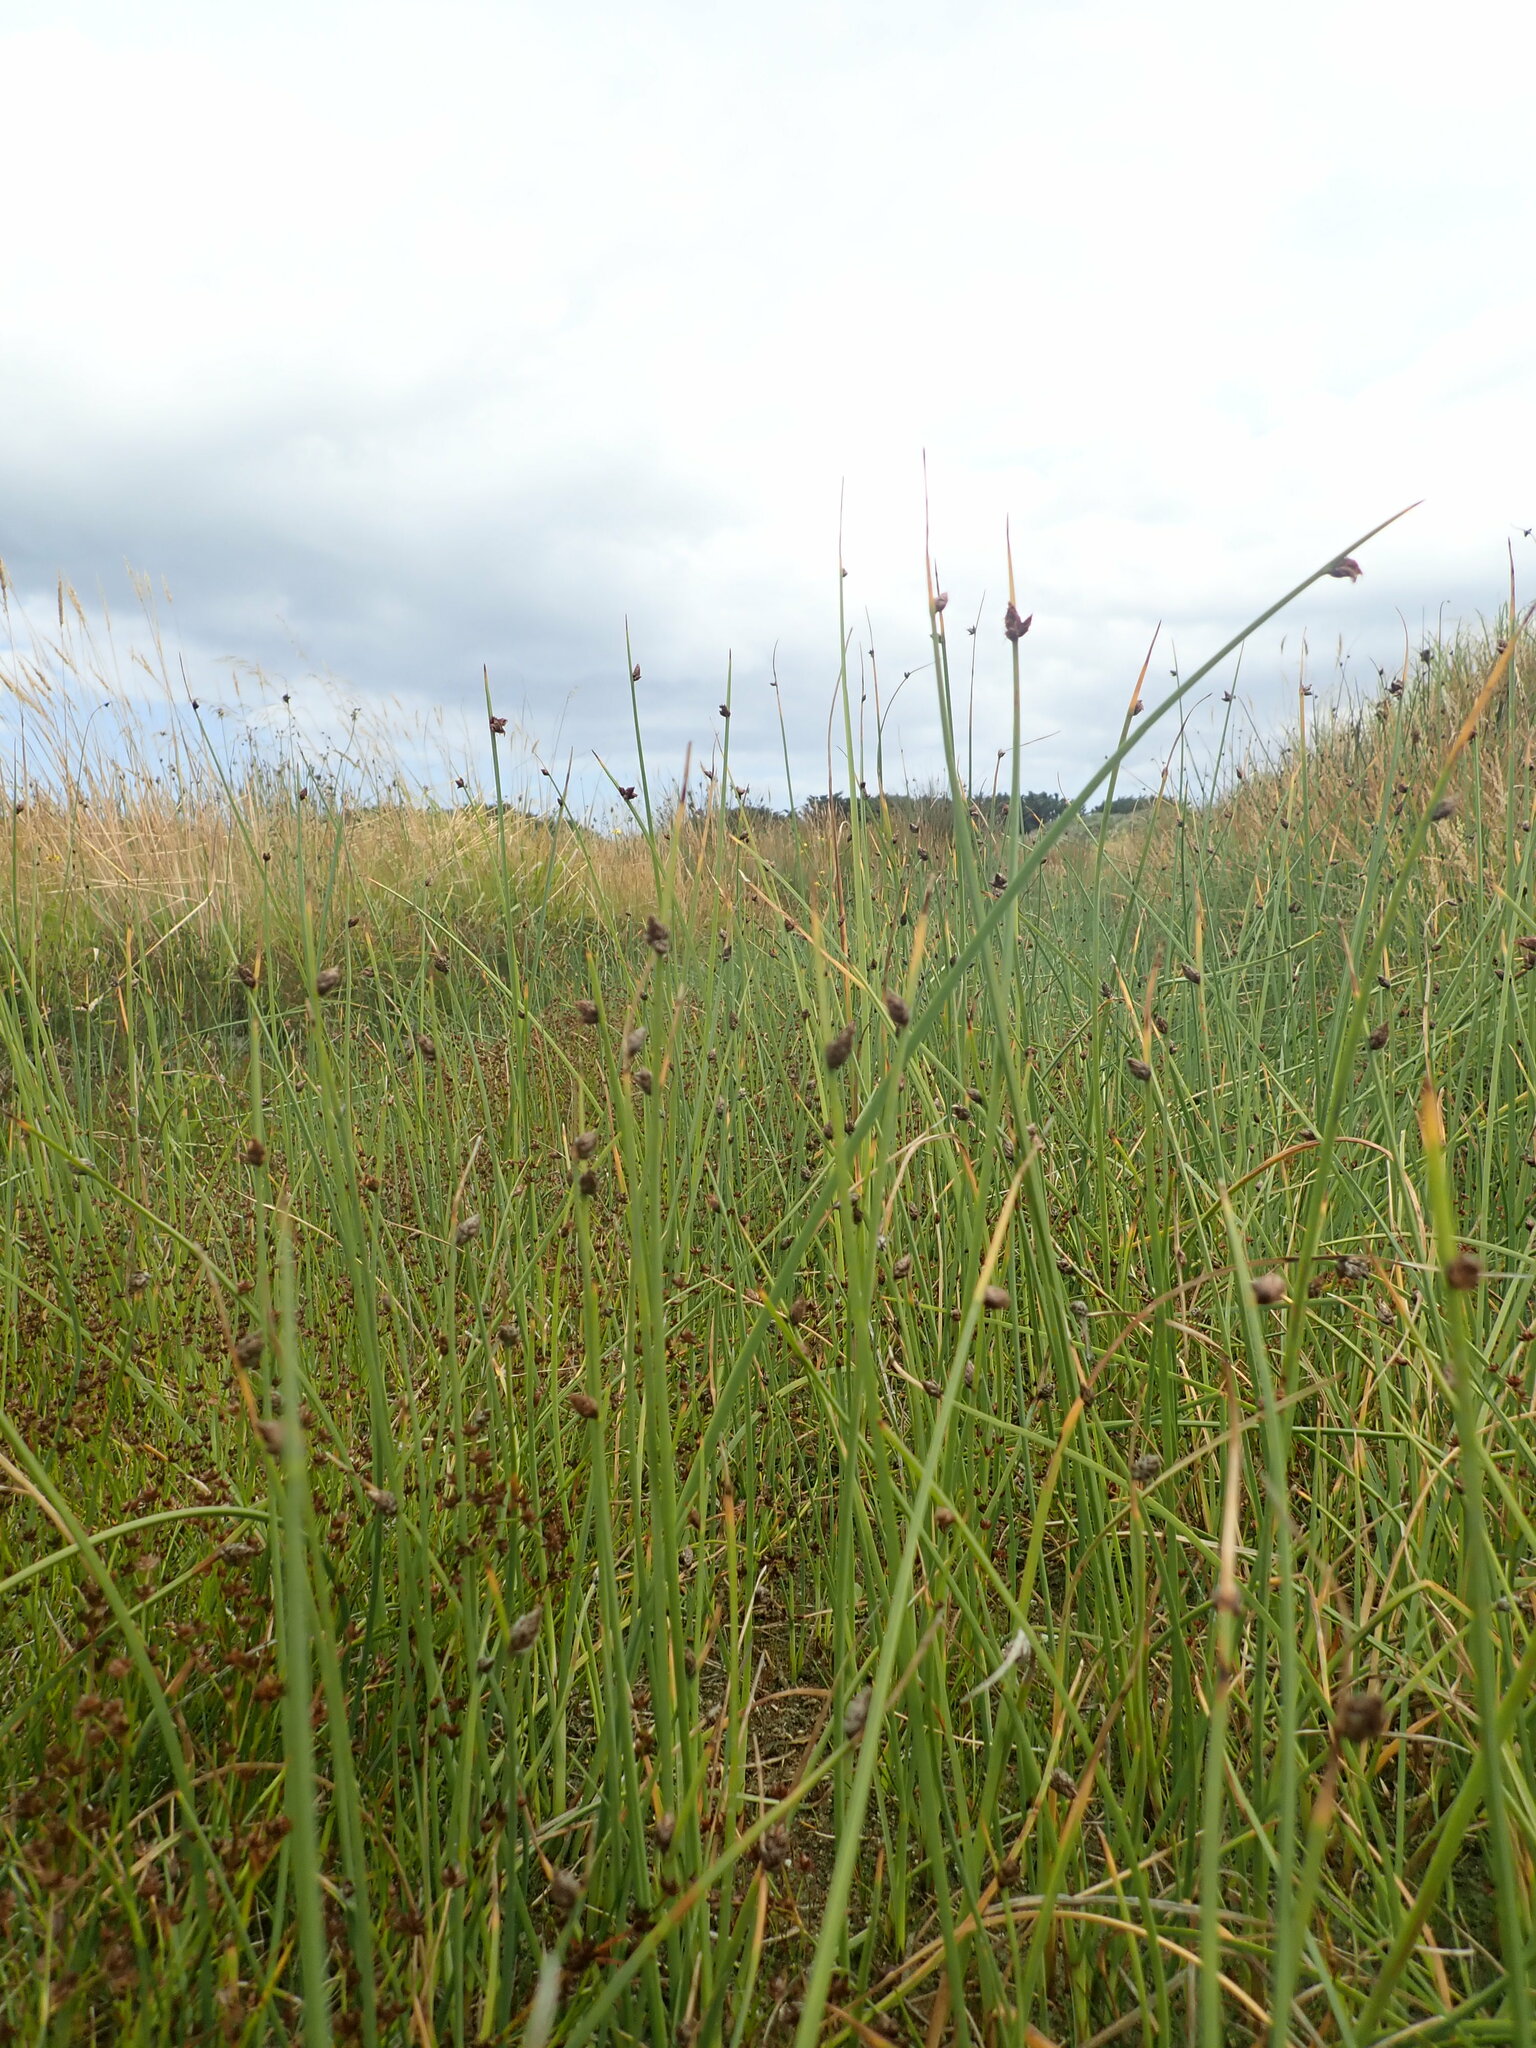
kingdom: Plantae
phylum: Tracheophyta
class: Liliopsida
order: Poales
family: Cyperaceae
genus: Schoenoplectus
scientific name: Schoenoplectus pungens
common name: Sharp club-rush
